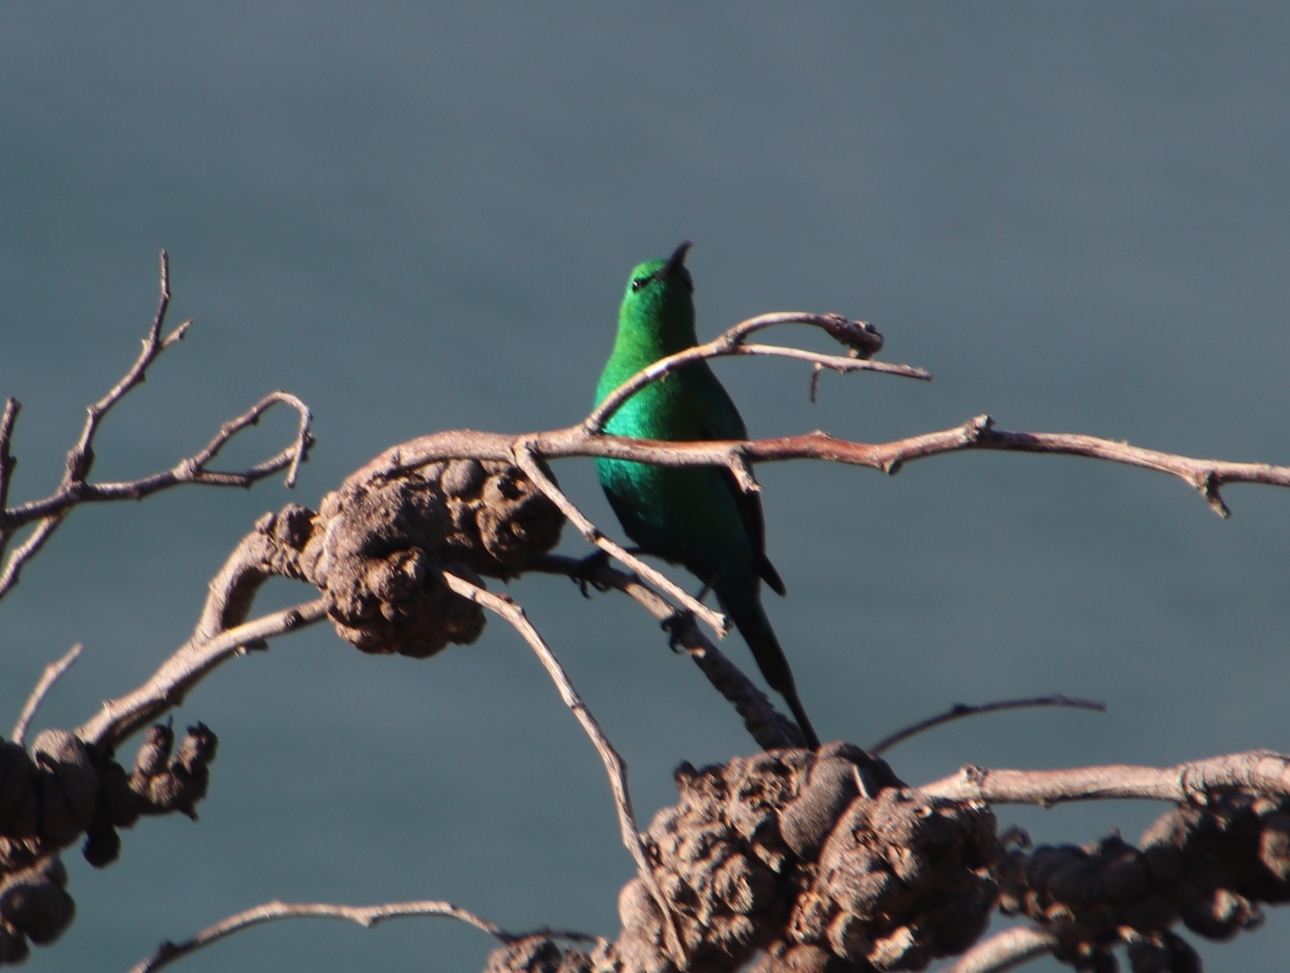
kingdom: Animalia
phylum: Chordata
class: Aves
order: Passeriformes
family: Nectariniidae
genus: Nectarinia
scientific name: Nectarinia famosa
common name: Malachite sunbird
